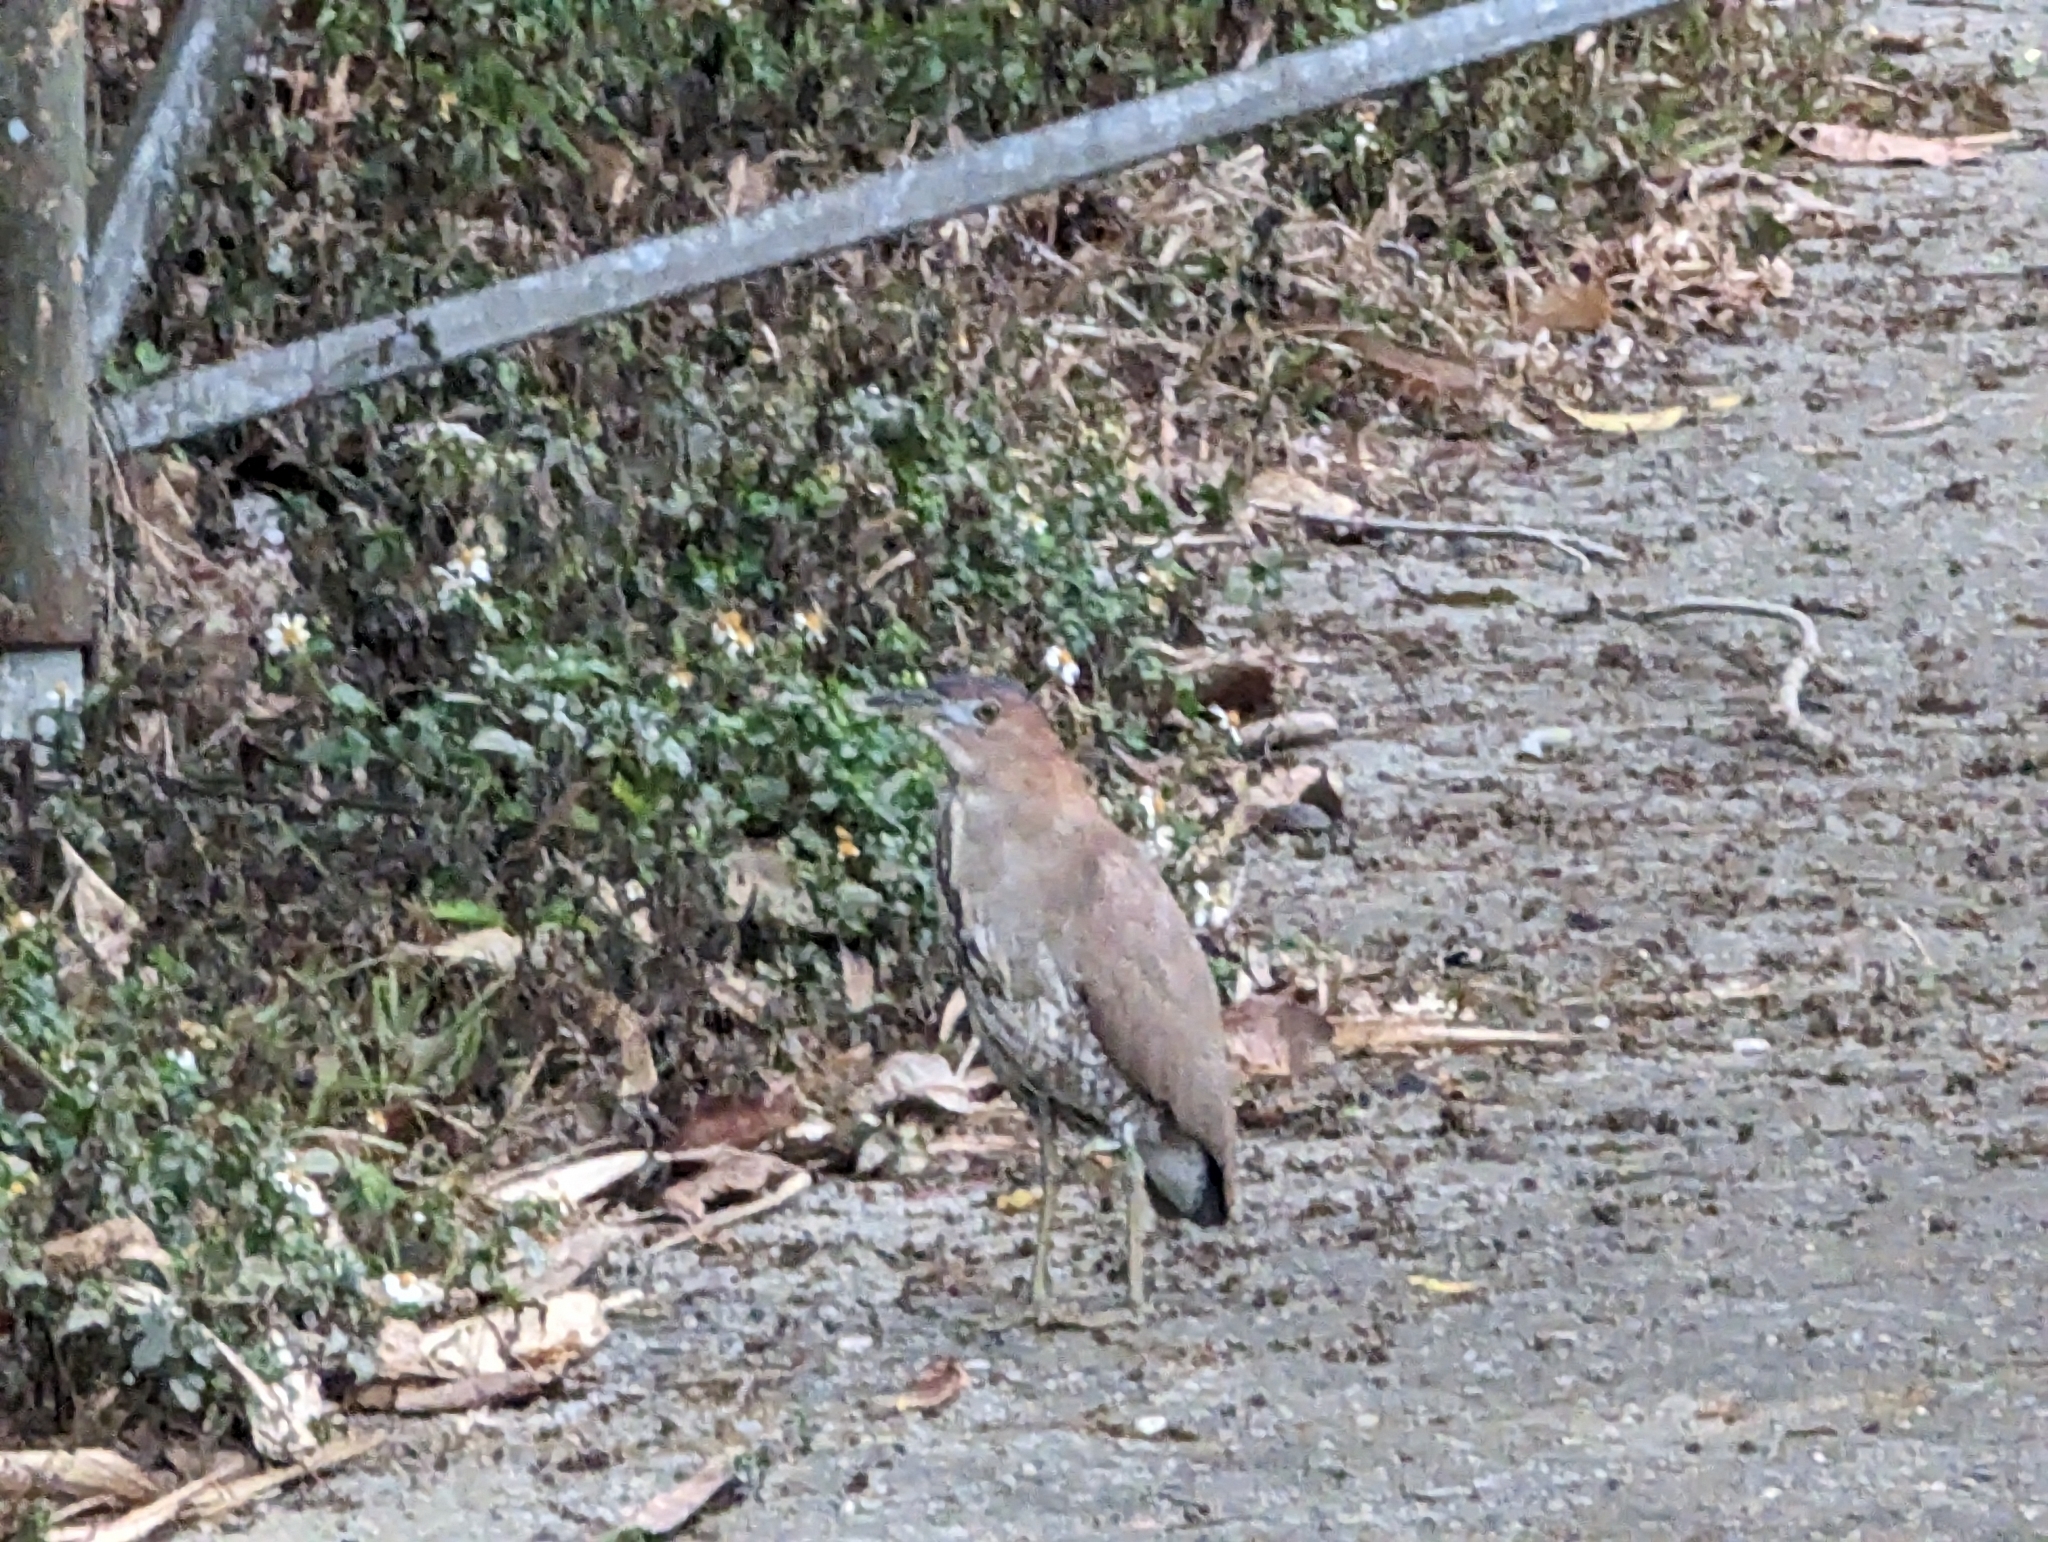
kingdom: Animalia
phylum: Chordata
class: Aves
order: Pelecaniformes
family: Ardeidae
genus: Gorsachius
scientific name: Gorsachius melanolophus
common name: Malayan night heron
